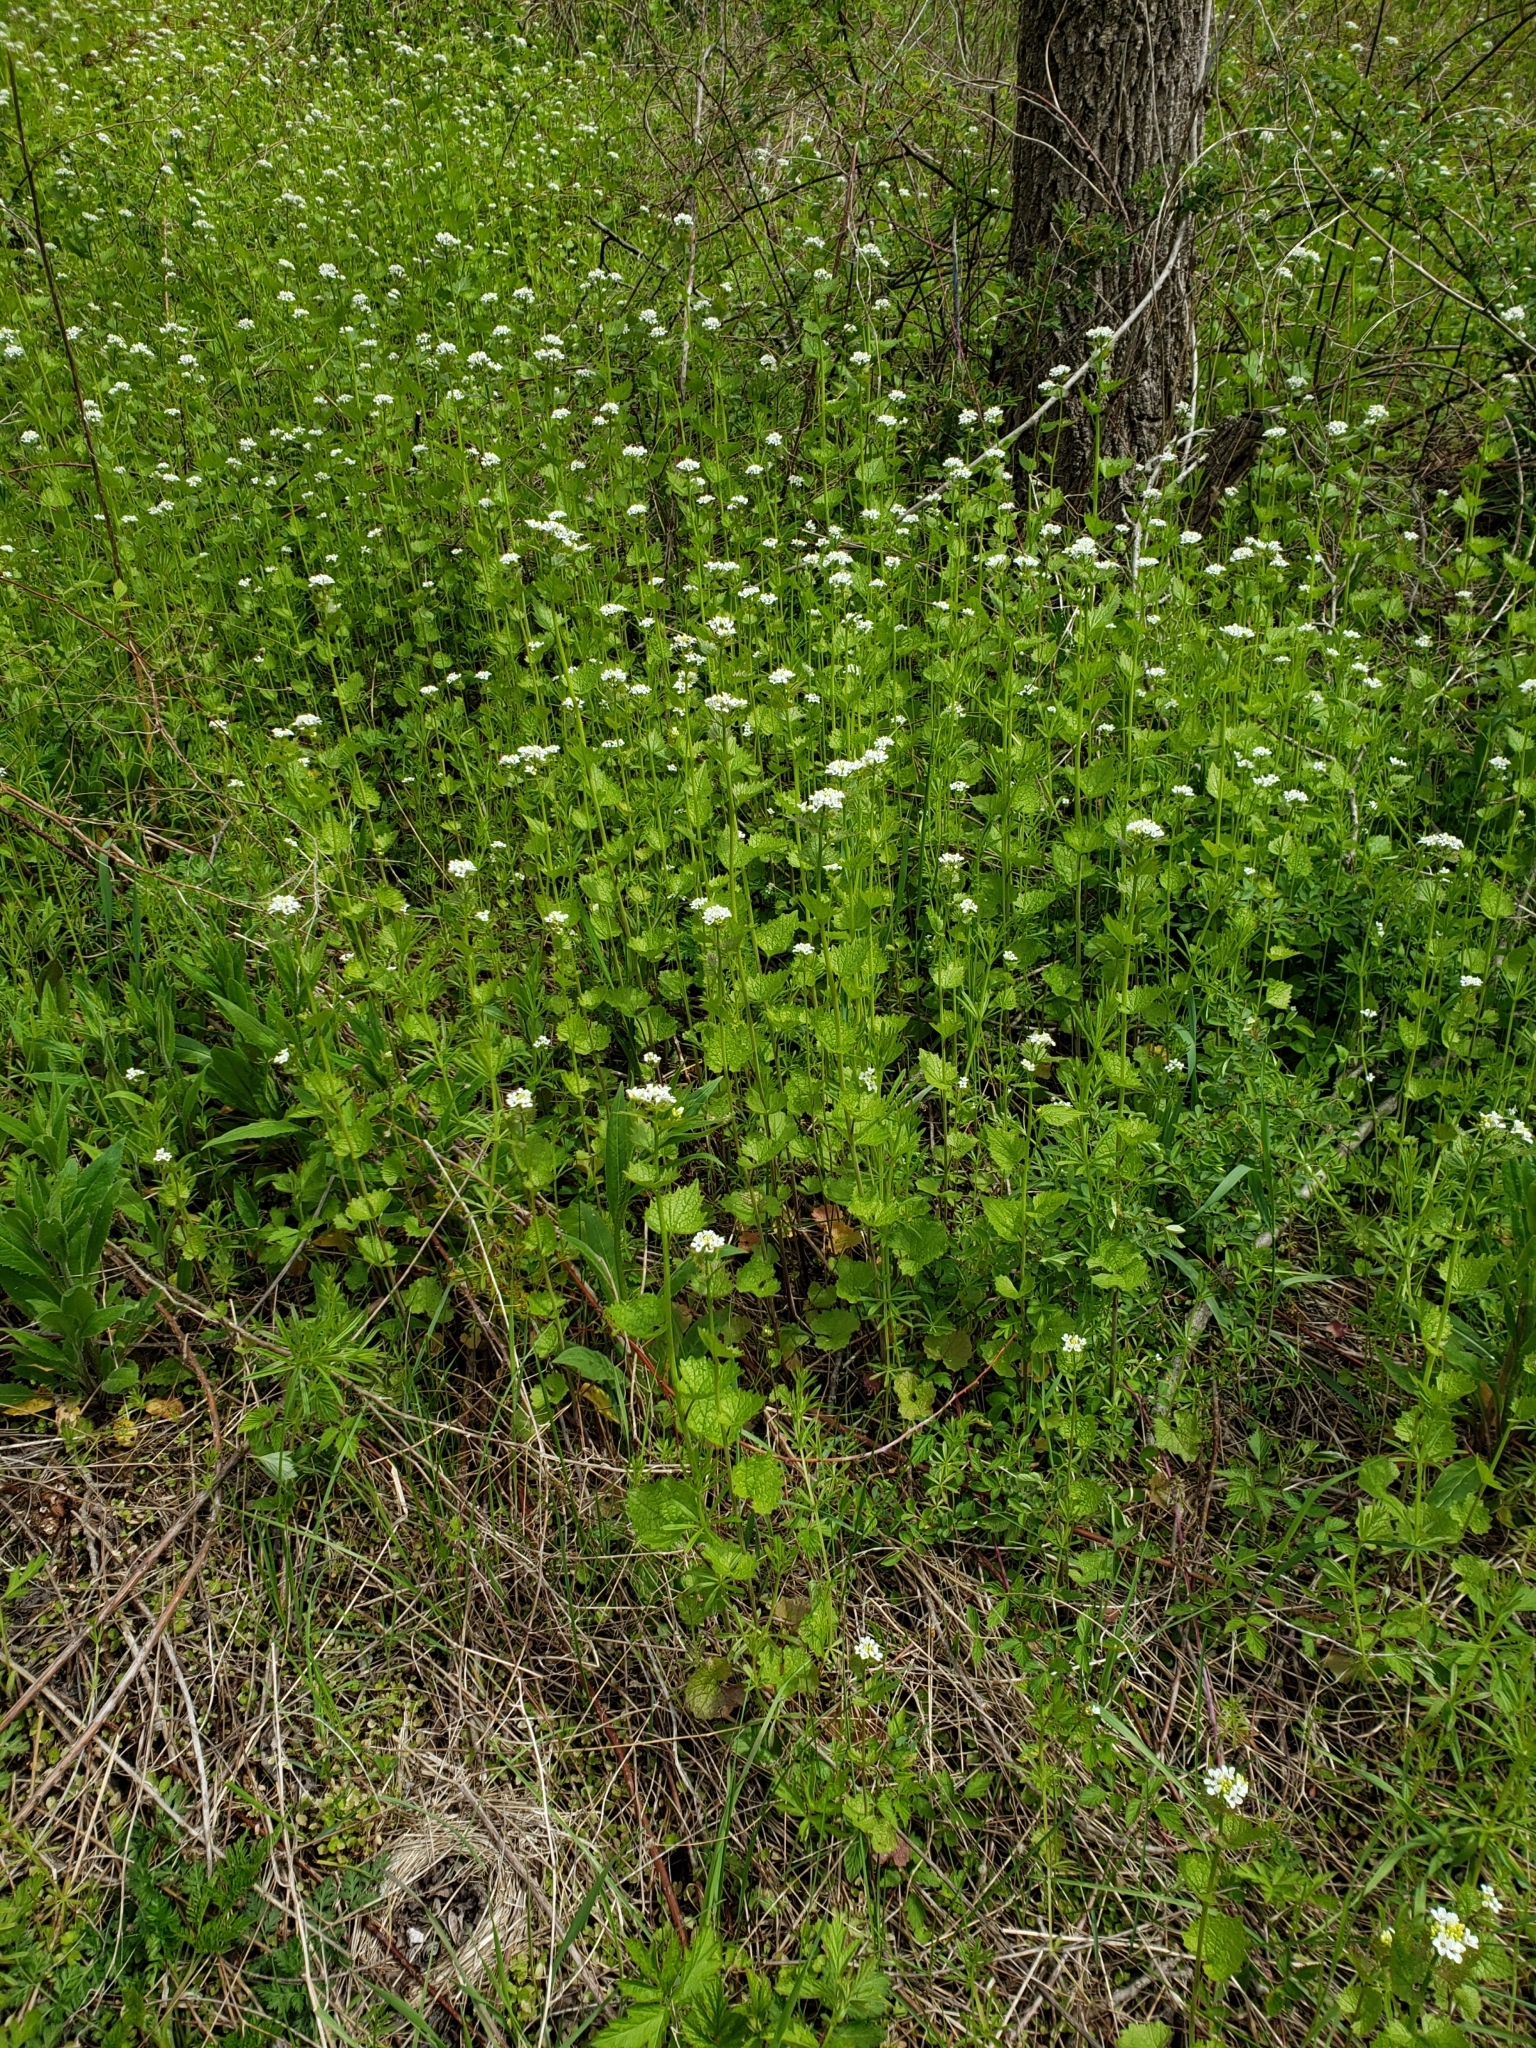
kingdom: Plantae
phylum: Tracheophyta
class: Magnoliopsida
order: Brassicales
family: Brassicaceae
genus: Alliaria
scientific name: Alliaria petiolata
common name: Garlic mustard
